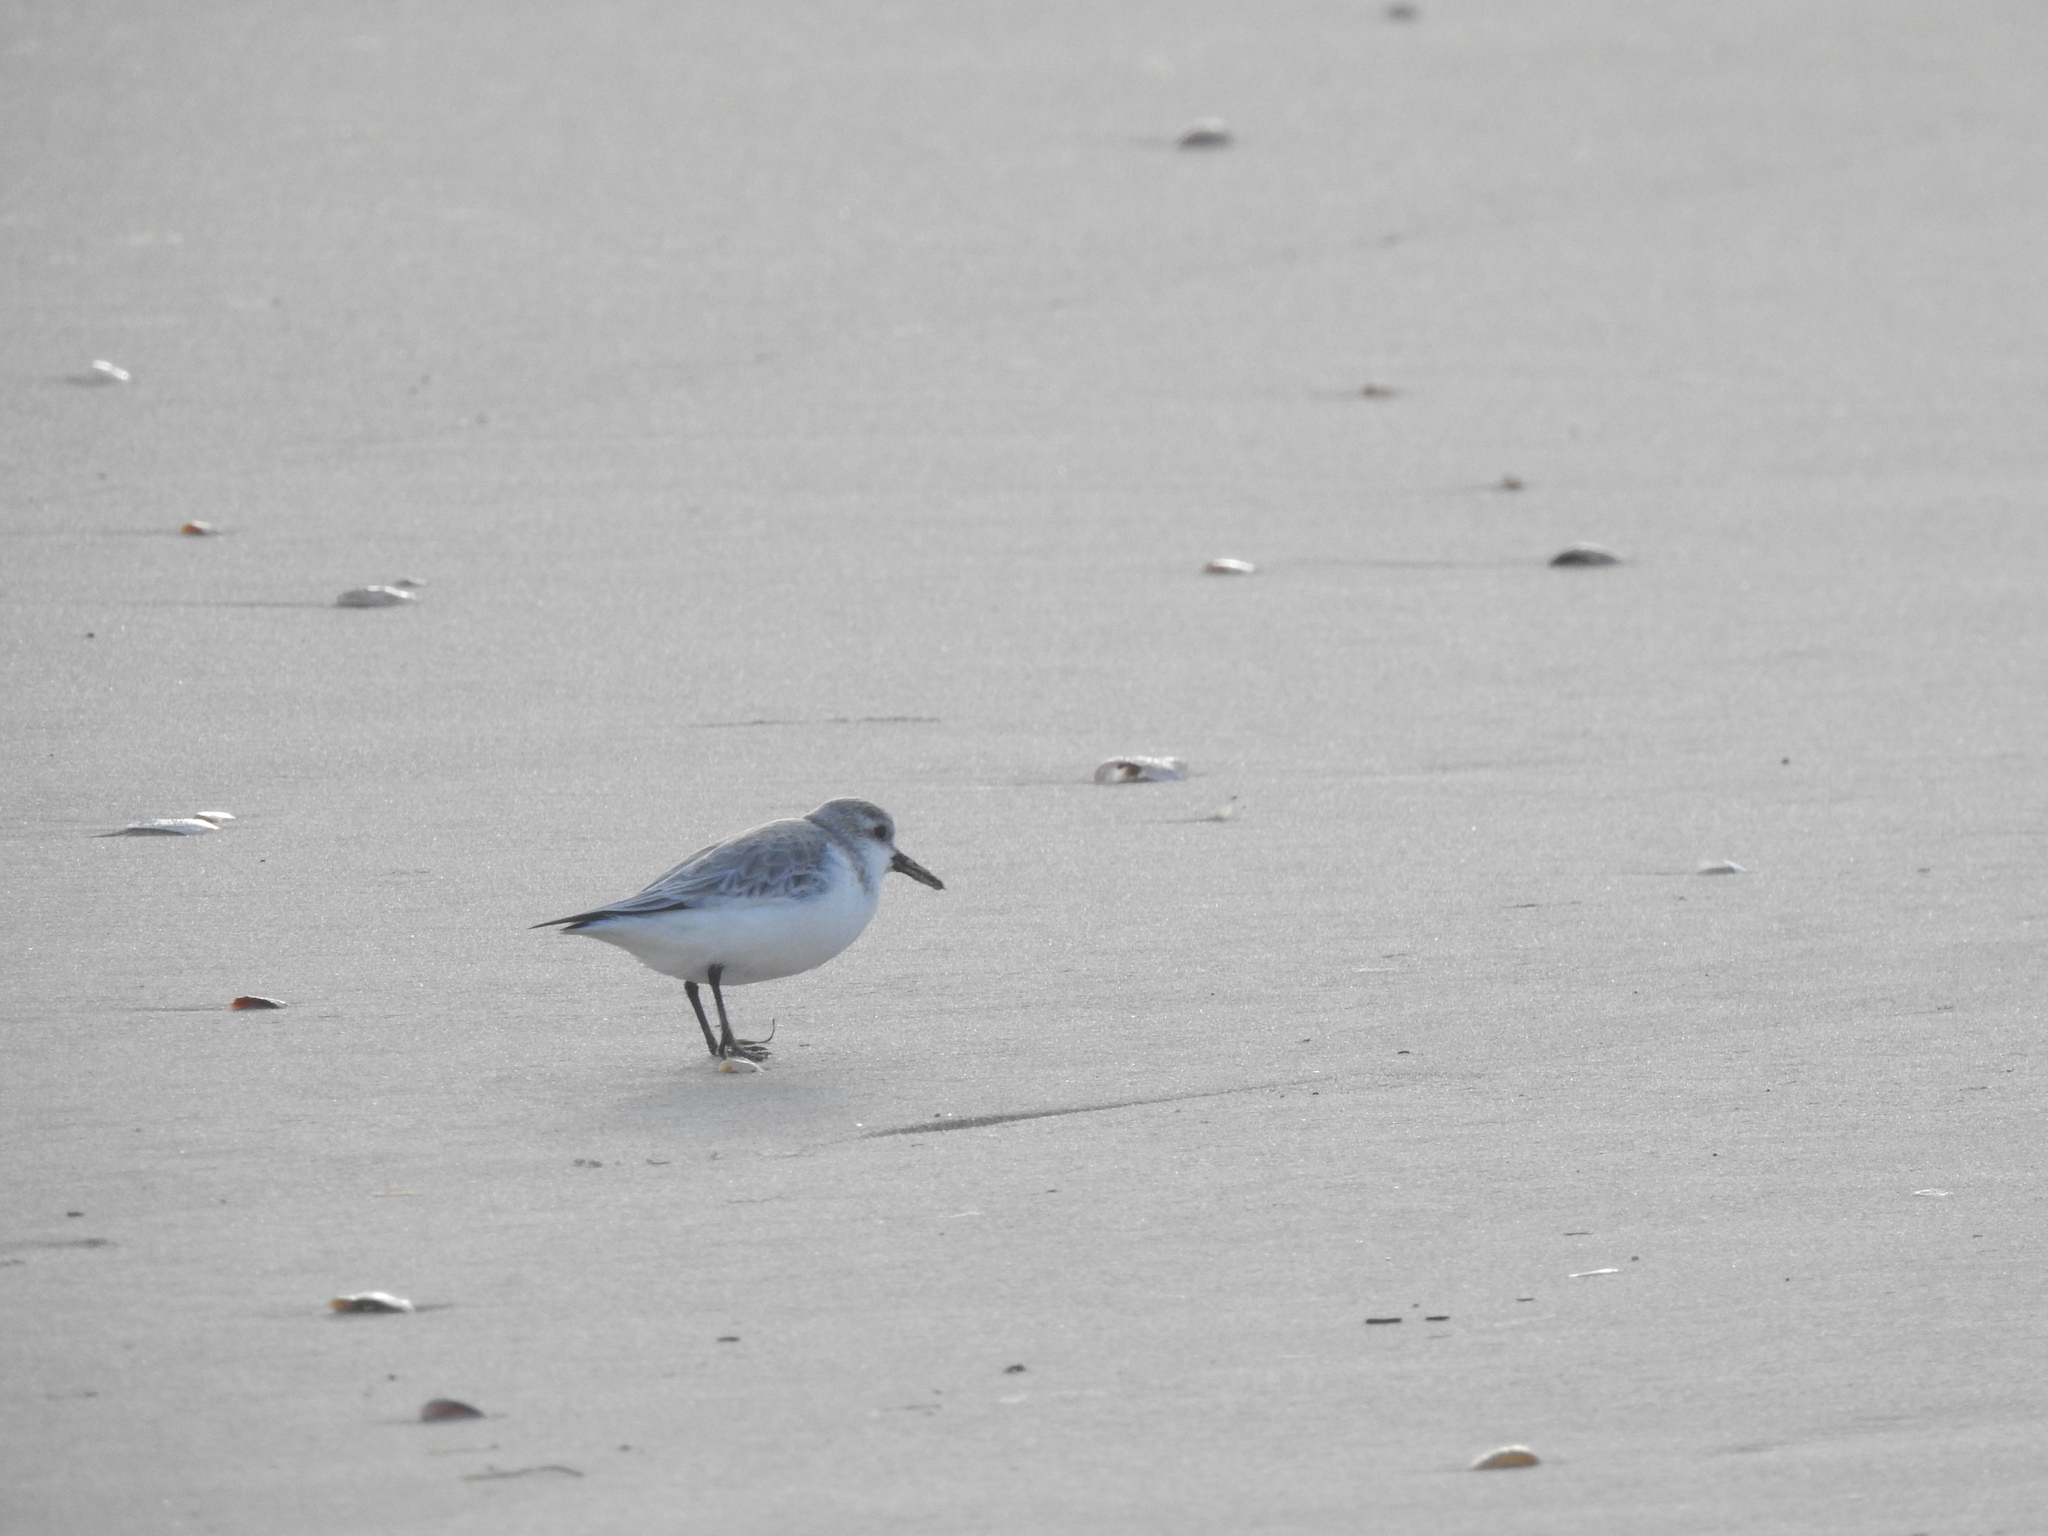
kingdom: Animalia
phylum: Chordata
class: Aves
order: Charadriiformes
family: Scolopacidae
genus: Calidris
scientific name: Calidris alba
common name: Sanderling
